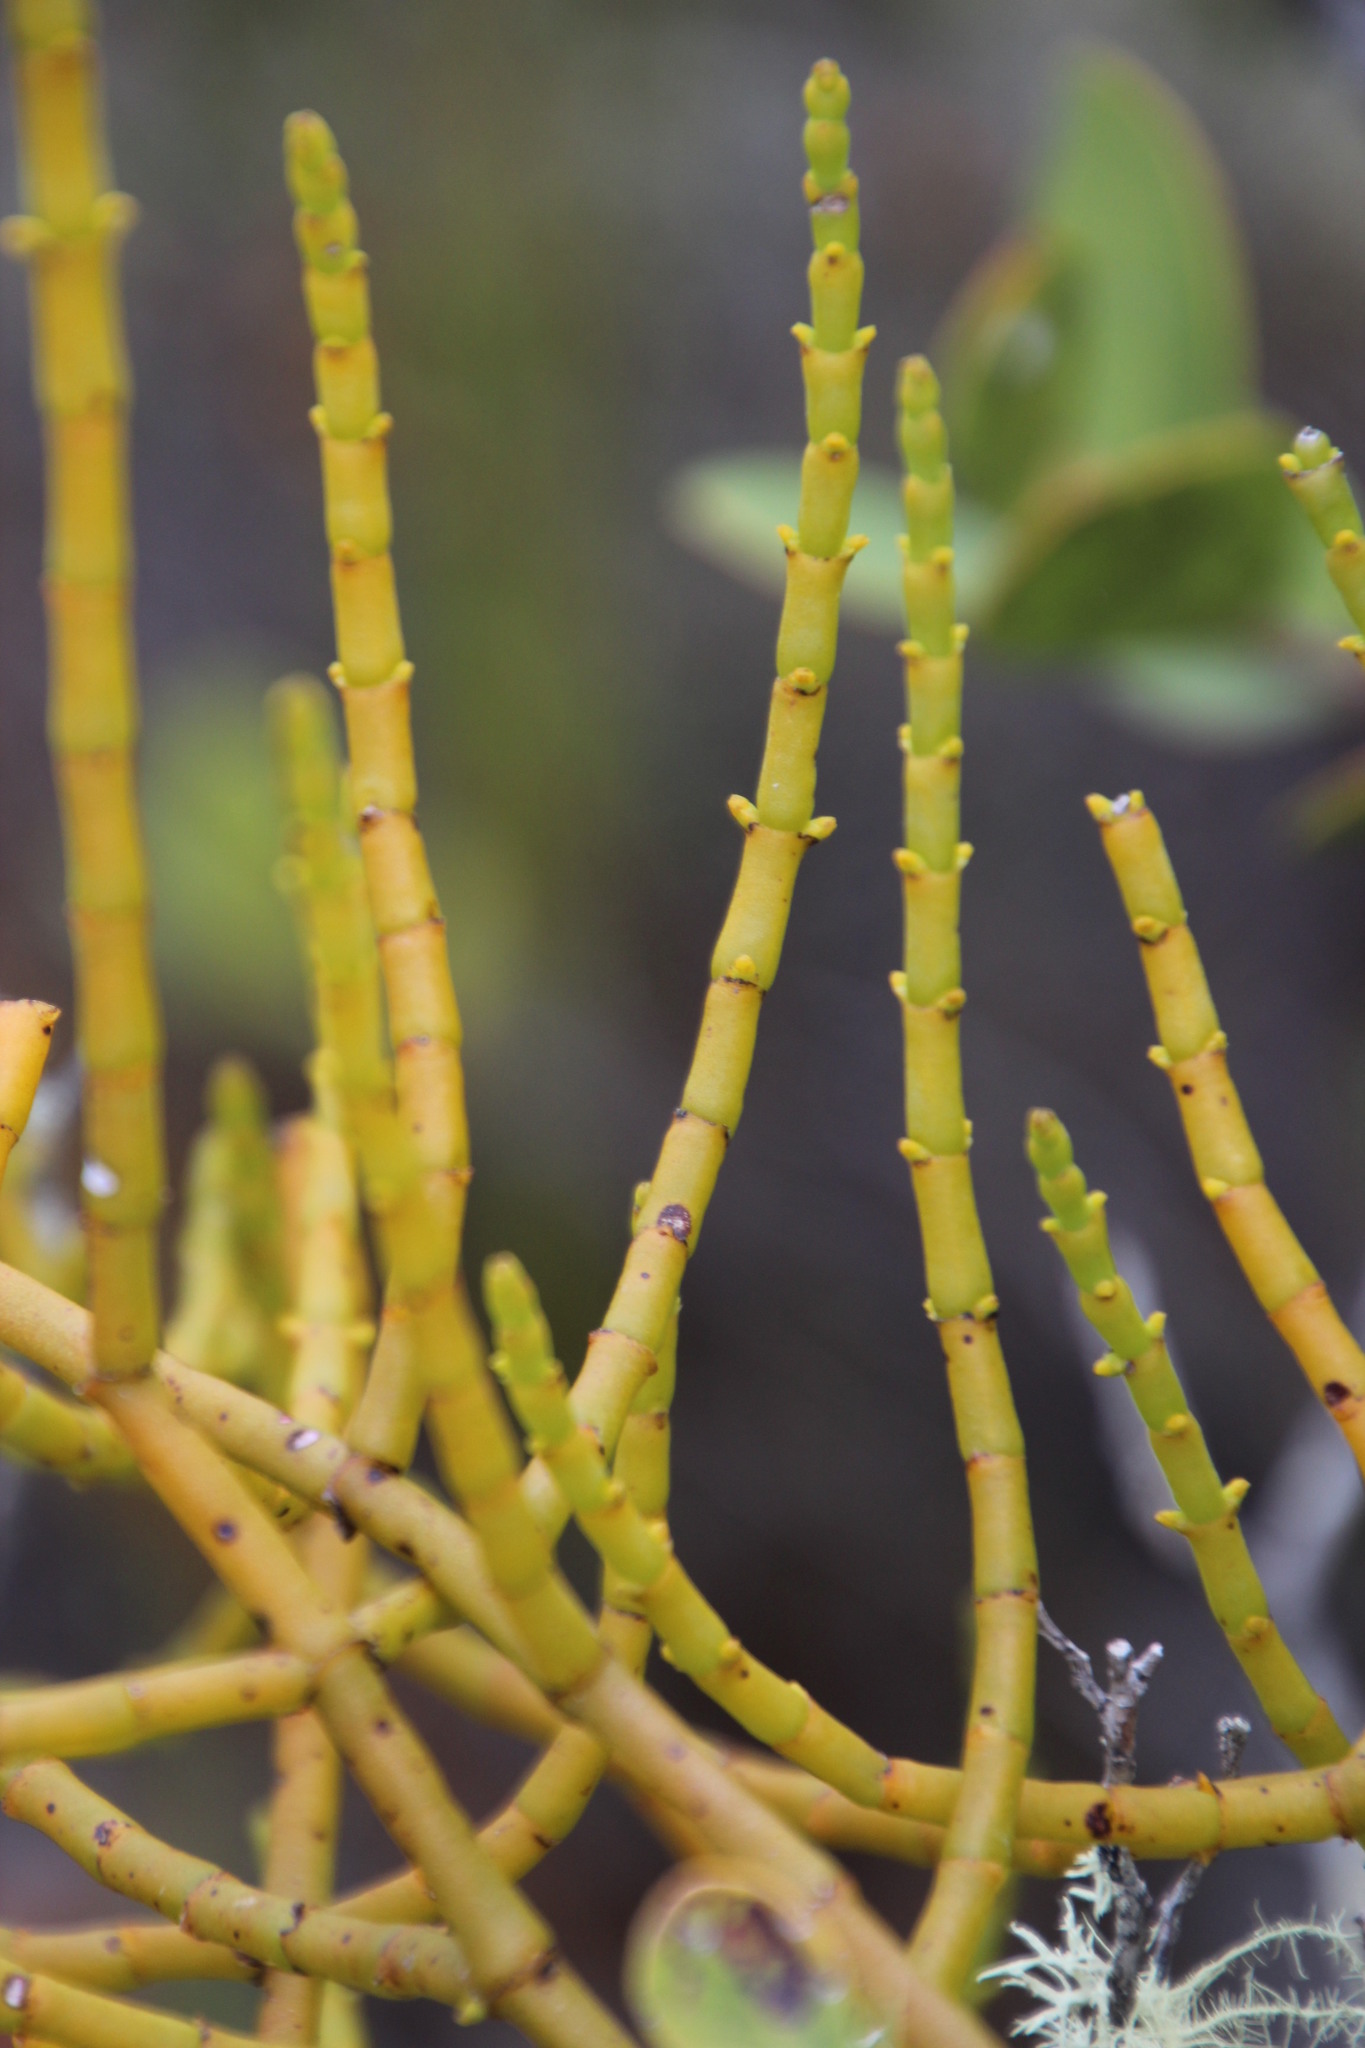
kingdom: Plantae
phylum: Tracheophyta
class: Magnoliopsida
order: Santalales
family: Viscaceae
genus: Viscum
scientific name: Viscum capense
